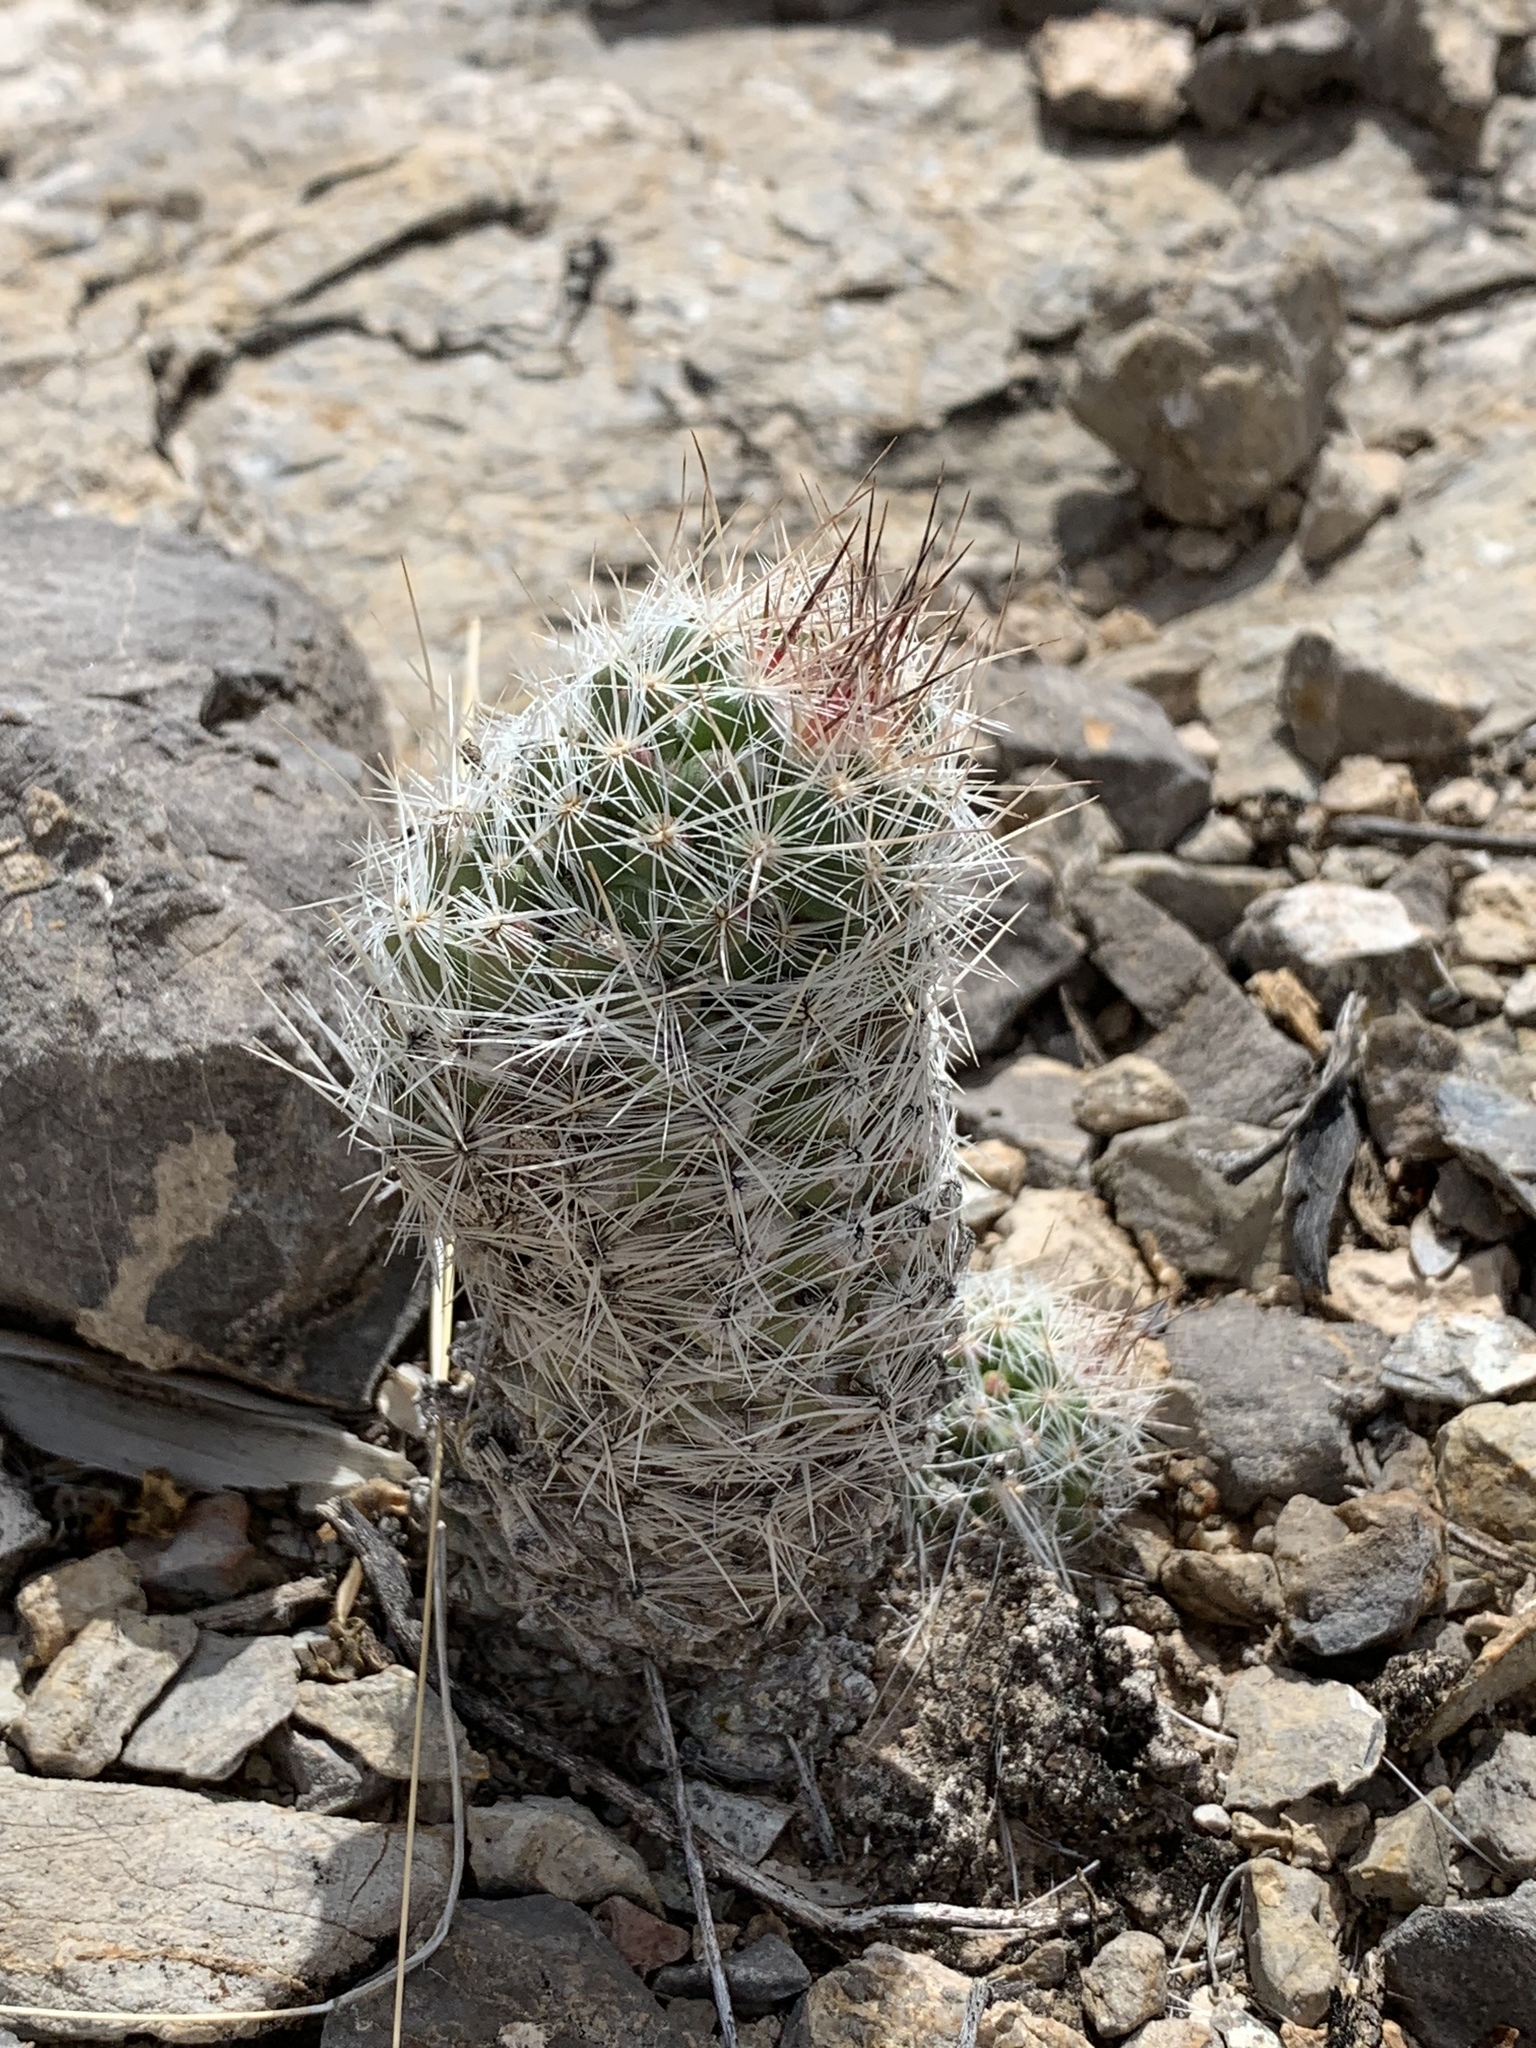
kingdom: Plantae
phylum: Tracheophyta
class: Magnoliopsida
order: Caryophyllales
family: Cactaceae
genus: Pelecyphora
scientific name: Pelecyphora tuberculosa
